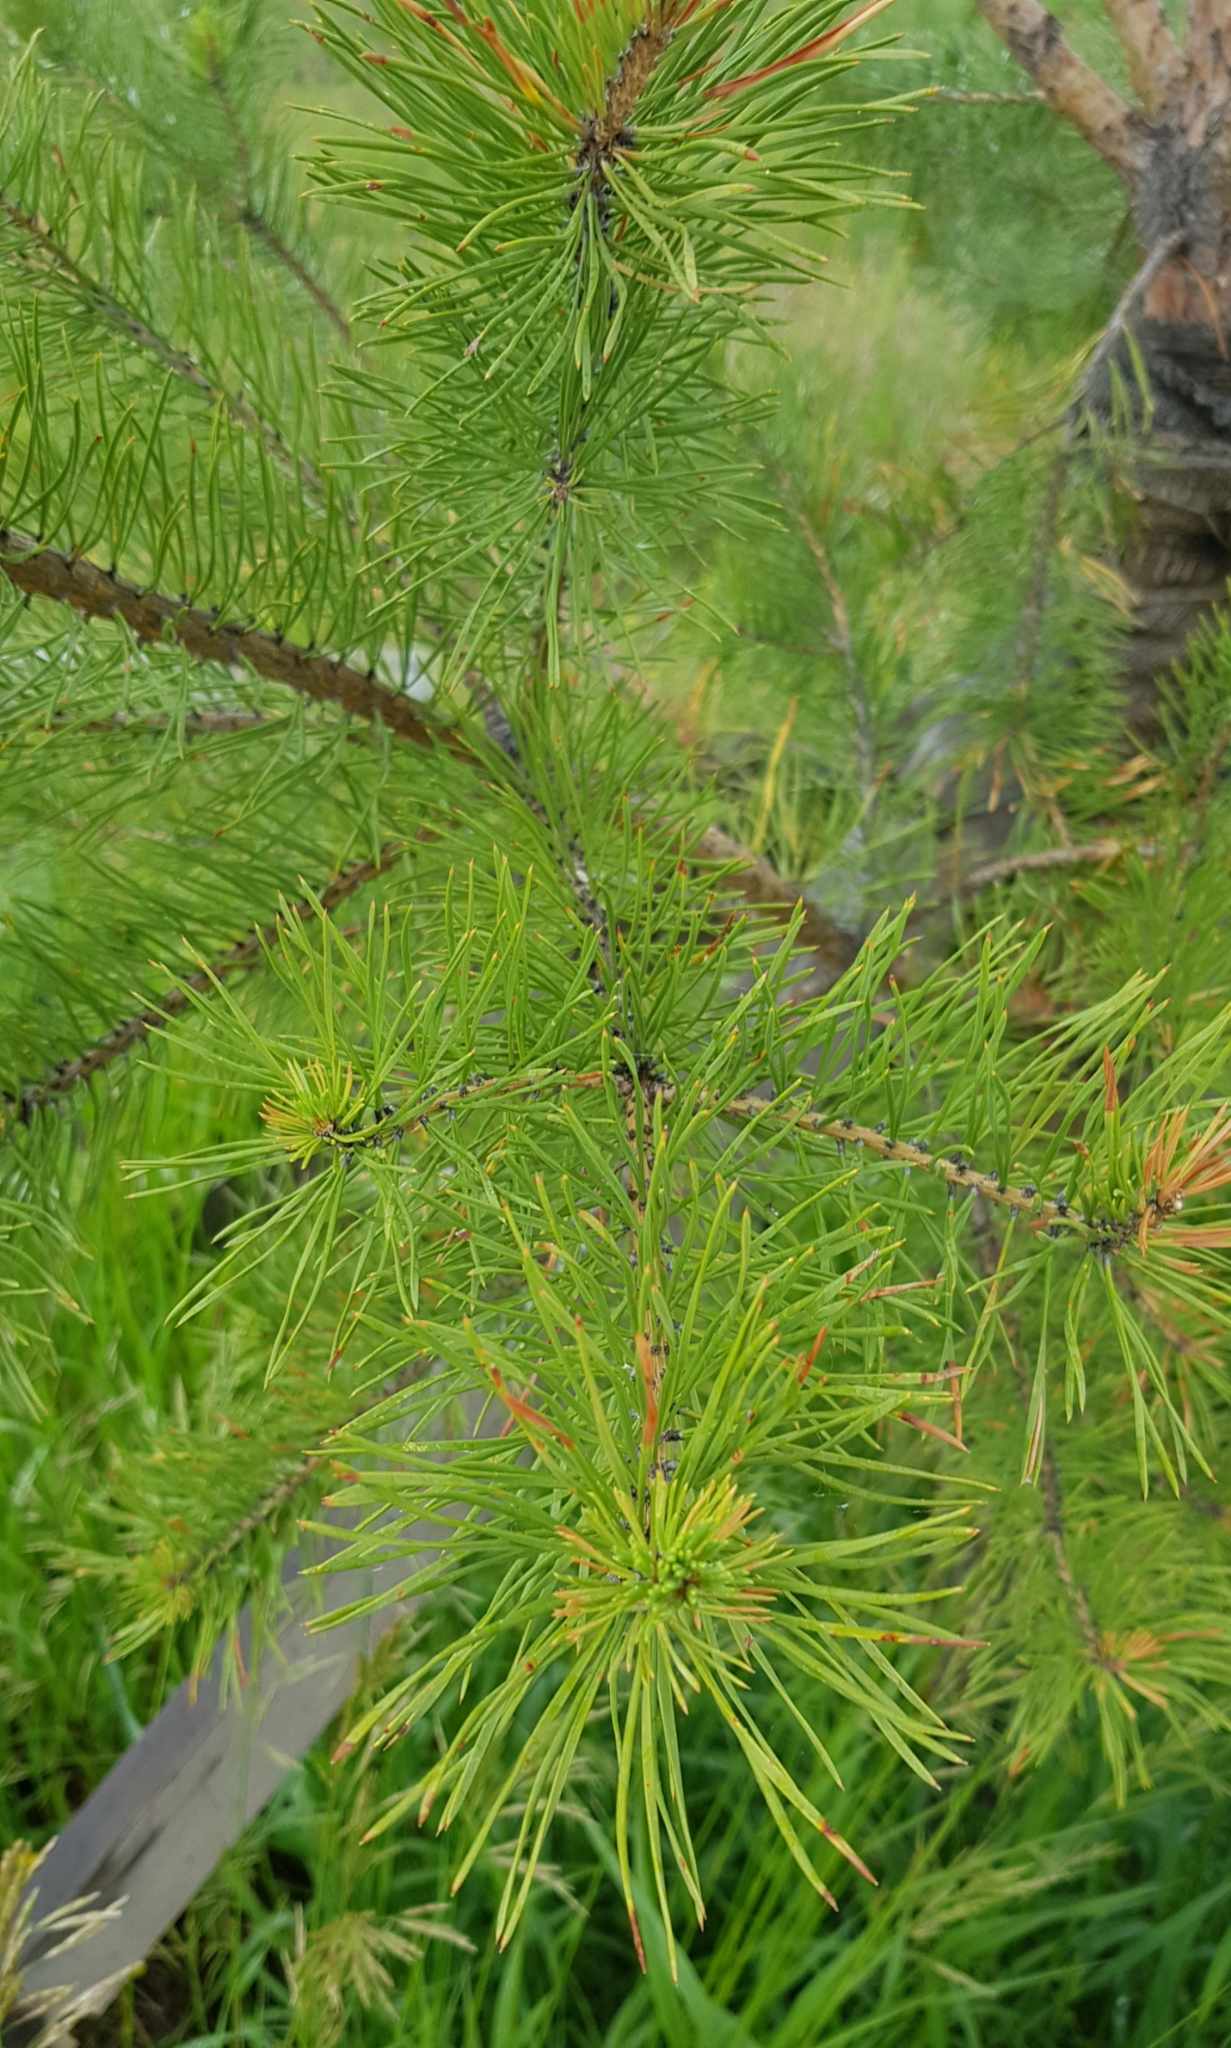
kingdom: Plantae
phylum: Tracheophyta
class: Pinopsida
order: Pinales
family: Pinaceae
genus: Pinus
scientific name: Pinus sylvestris
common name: Scots pine
